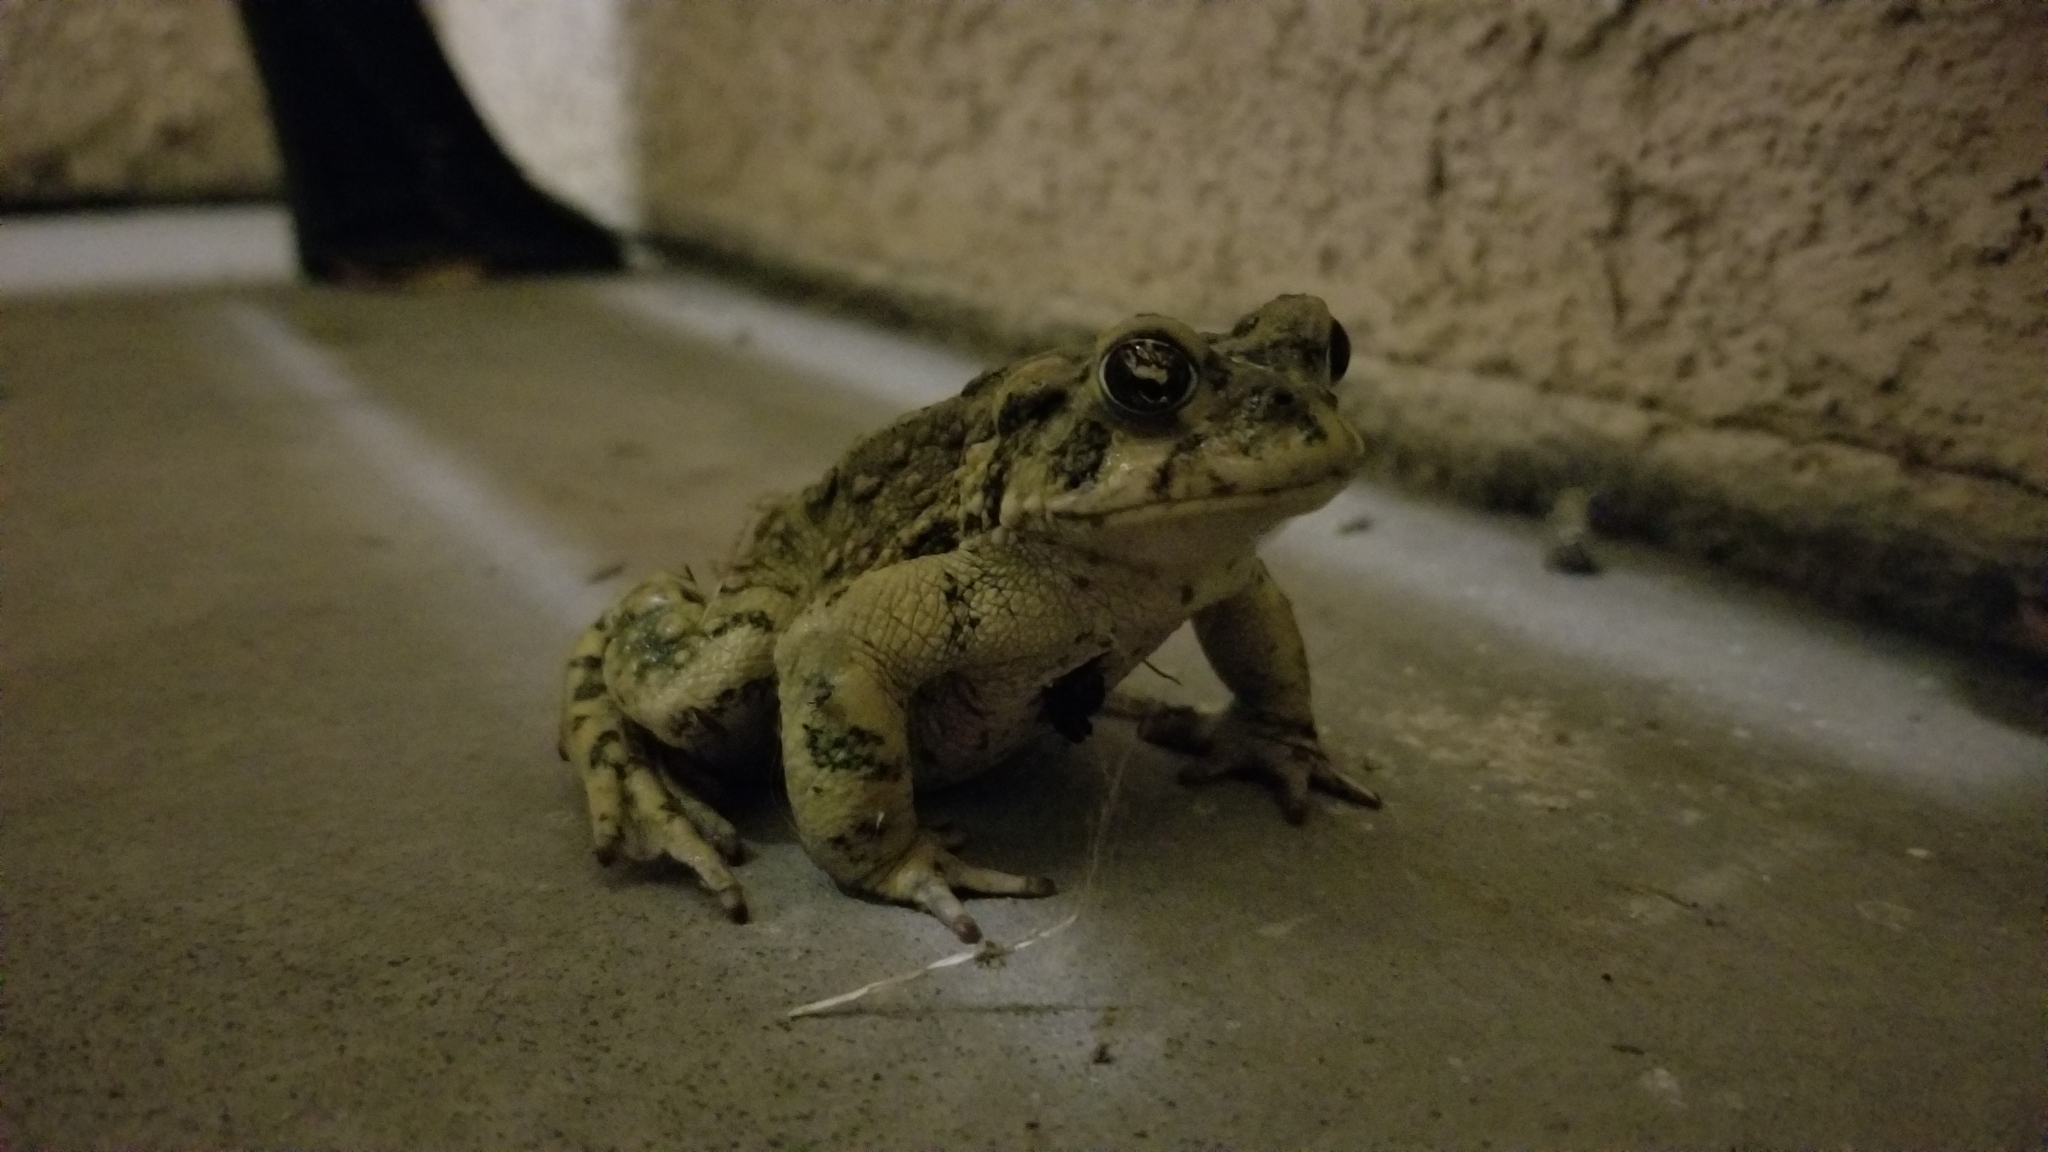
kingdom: Animalia
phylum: Chordata
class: Amphibia
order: Anura
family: Bufonidae
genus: Anaxyrus
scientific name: Anaxyrus boreas
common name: Western toad
